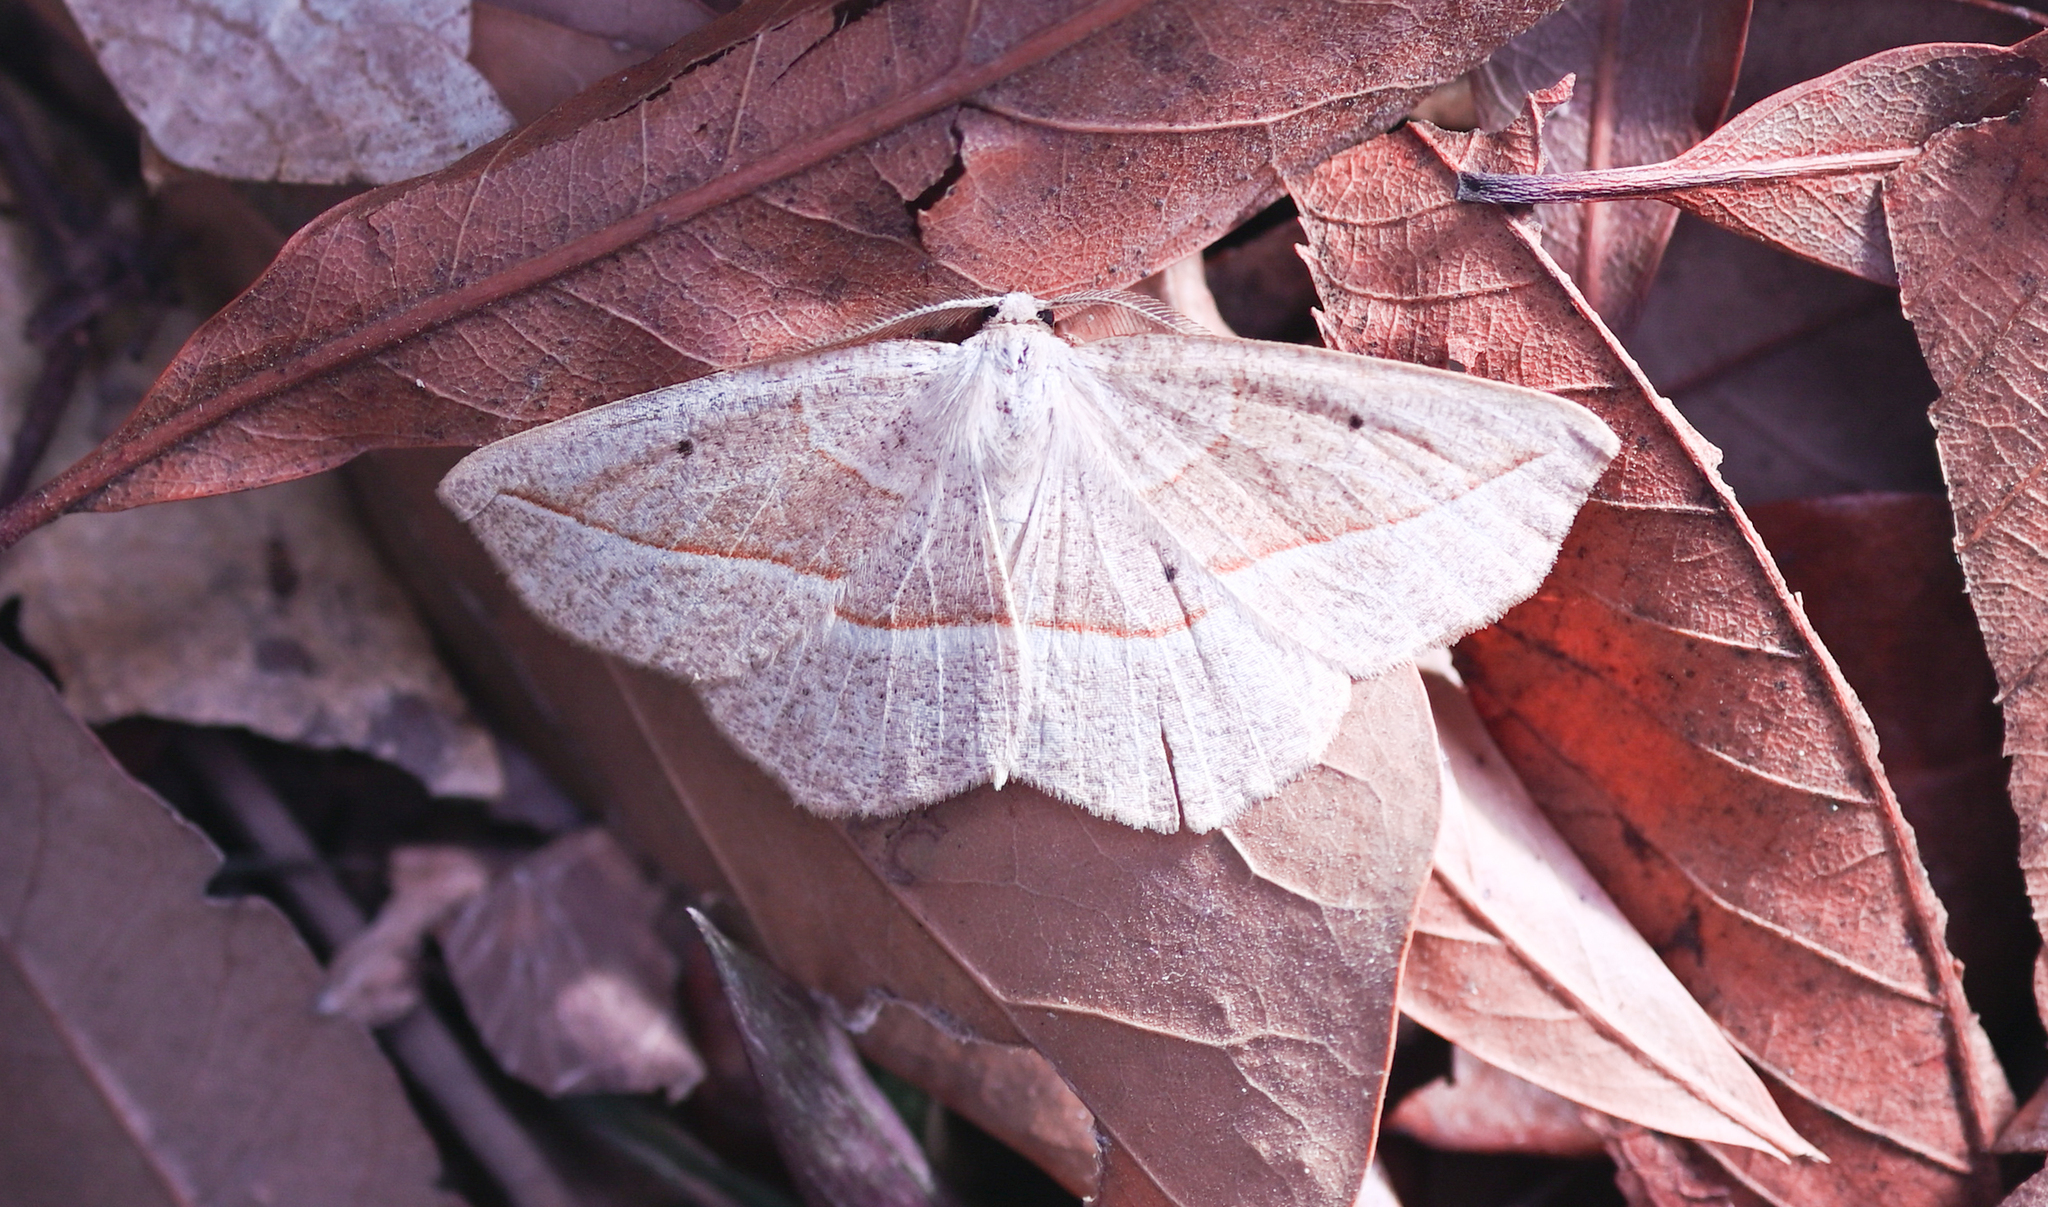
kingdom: Animalia
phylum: Arthropoda
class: Insecta
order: Lepidoptera
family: Geometridae
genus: Eusarca
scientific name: Eusarca confusaria
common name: Confused eusarca
